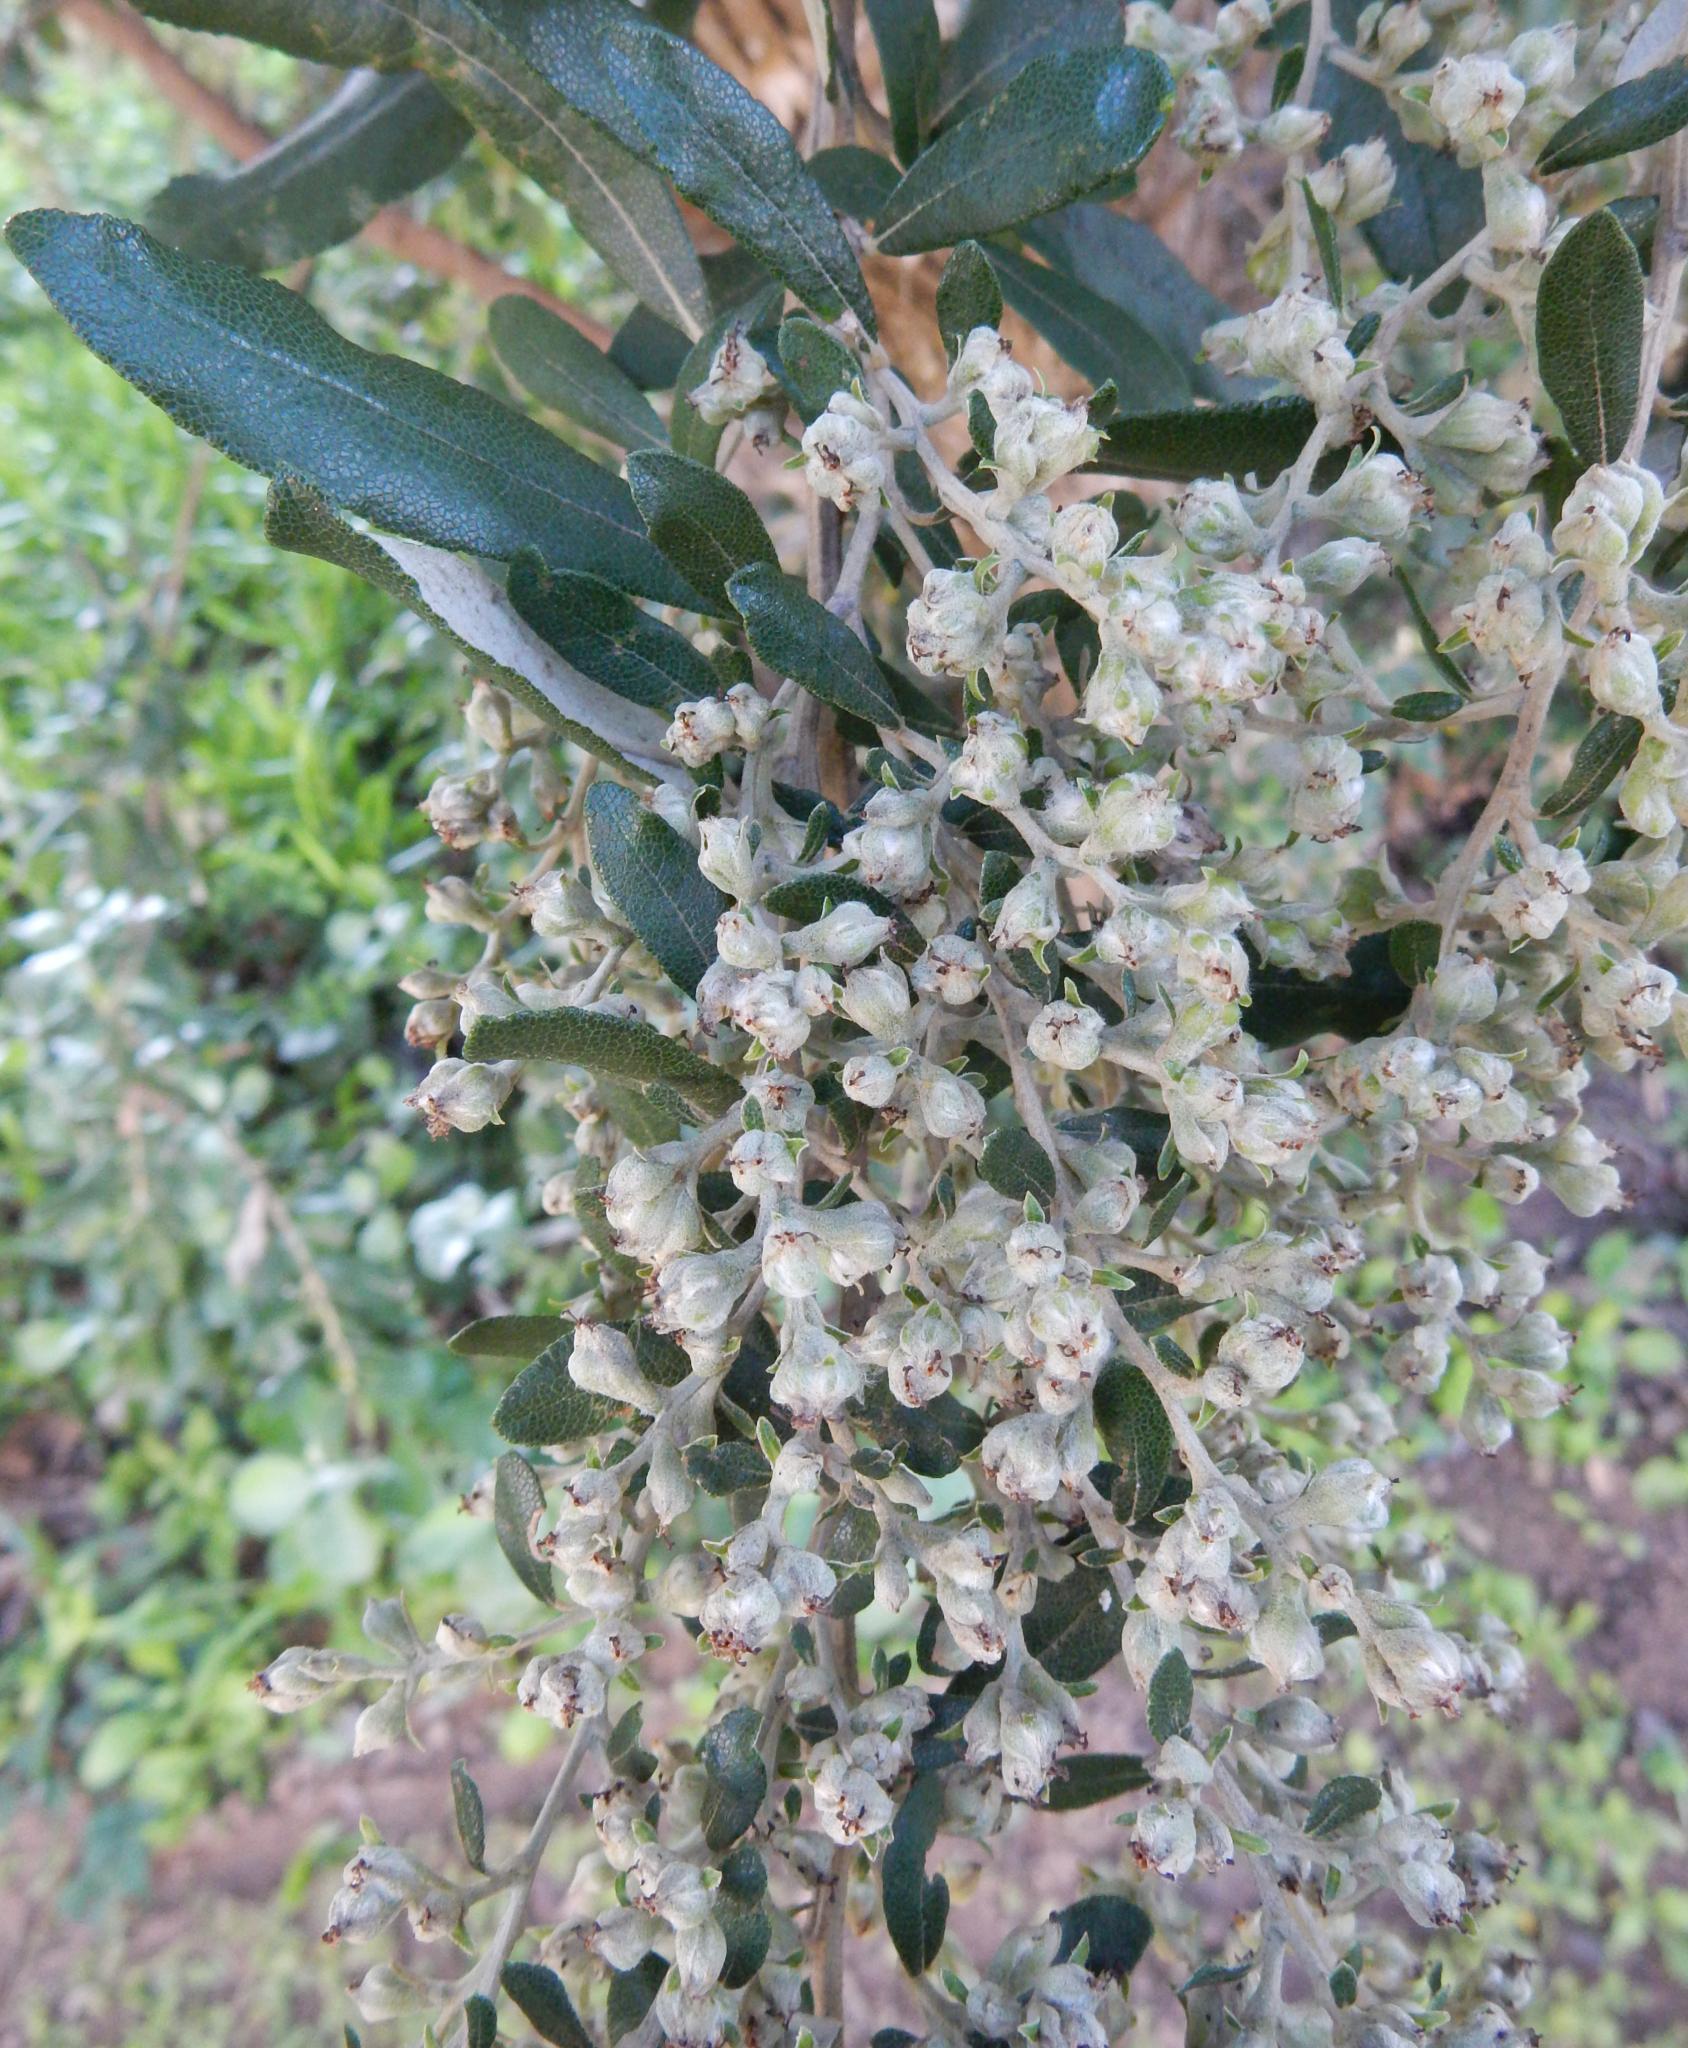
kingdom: Plantae
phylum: Tracheophyta
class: Magnoliopsida
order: Asterales
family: Asteraceae
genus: Tarchonanthus
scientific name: Tarchonanthus littoralis
